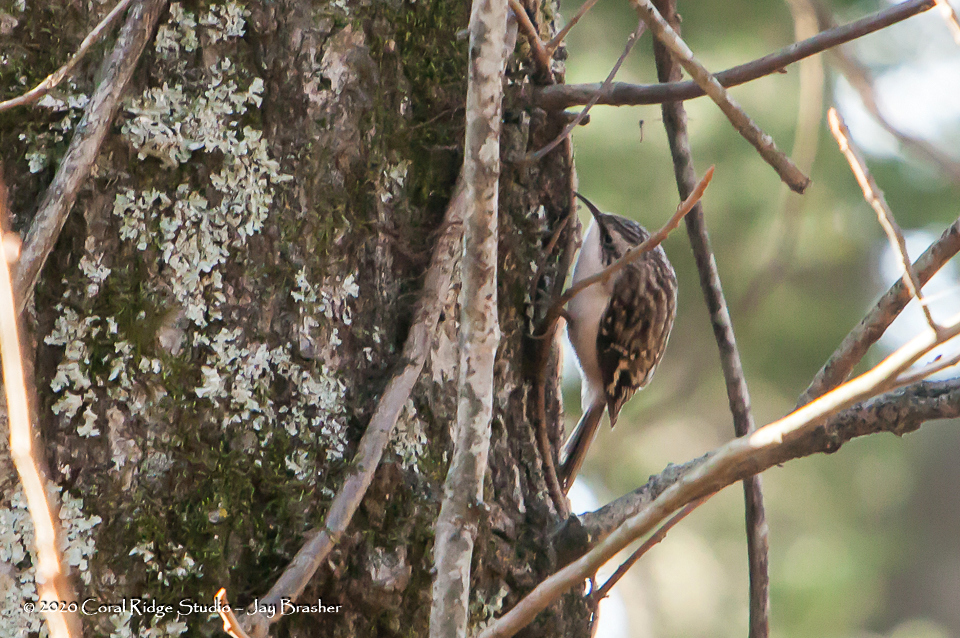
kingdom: Animalia
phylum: Chordata
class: Aves
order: Passeriformes
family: Certhiidae
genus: Certhia
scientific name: Certhia americana
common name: Brown creeper
